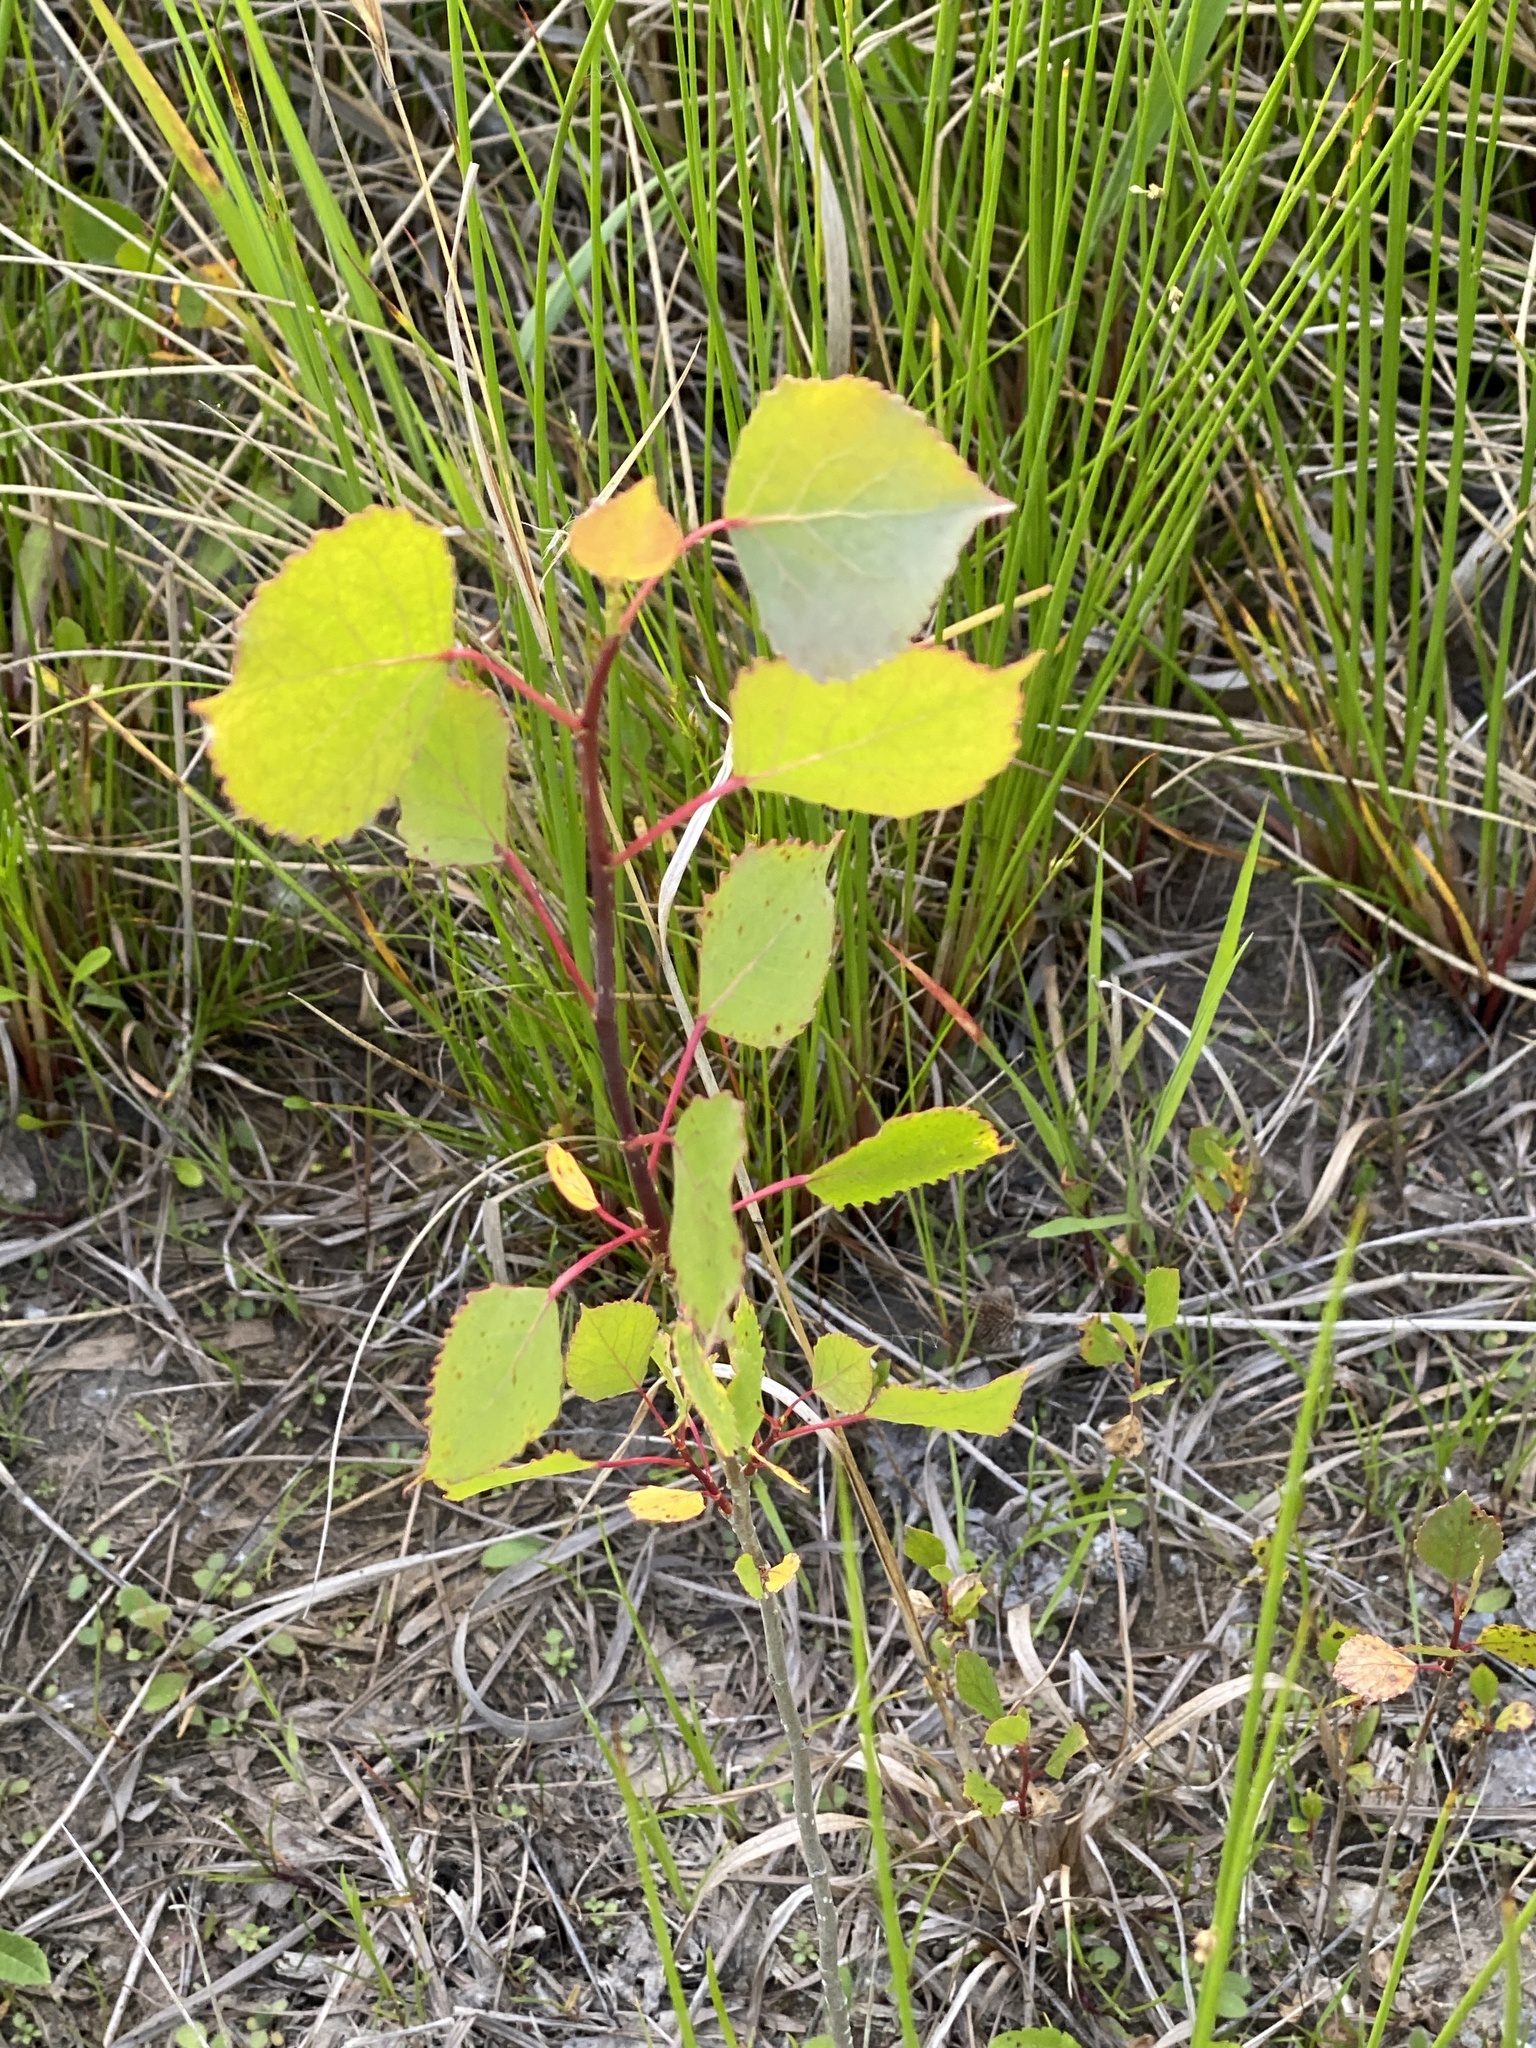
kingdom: Plantae
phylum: Tracheophyta
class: Magnoliopsida
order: Malpighiales
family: Salicaceae
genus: Populus
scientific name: Populus deltoides
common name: Eastern cottonwood
